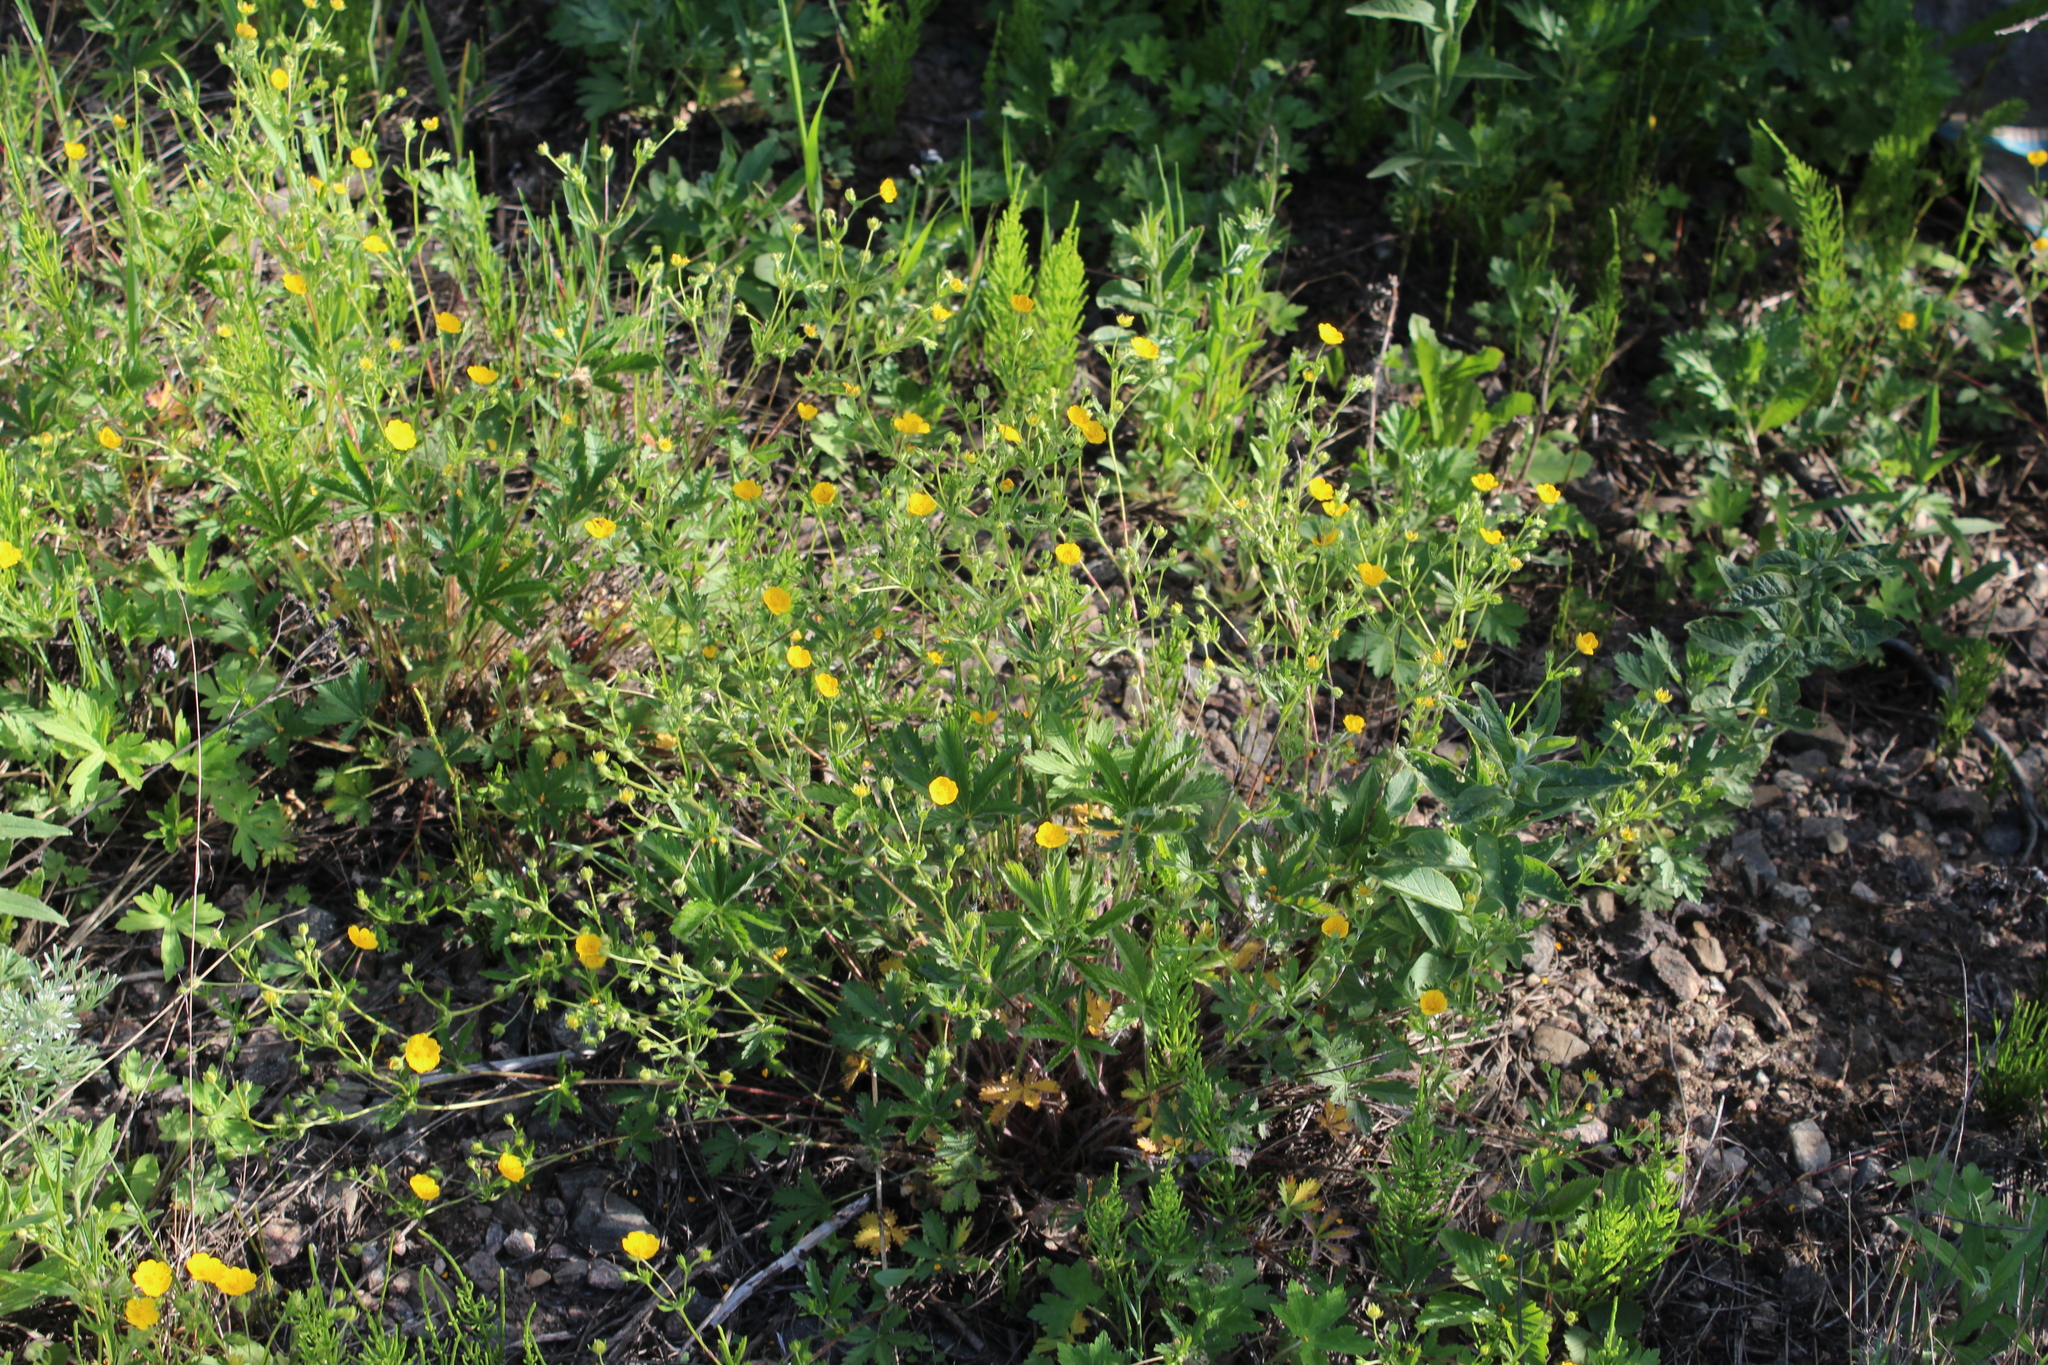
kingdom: Plantae
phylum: Tracheophyta
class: Magnoliopsida
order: Rosales
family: Rosaceae
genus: Potentilla
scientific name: Potentilla thuringiaca
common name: European cinquefoil
